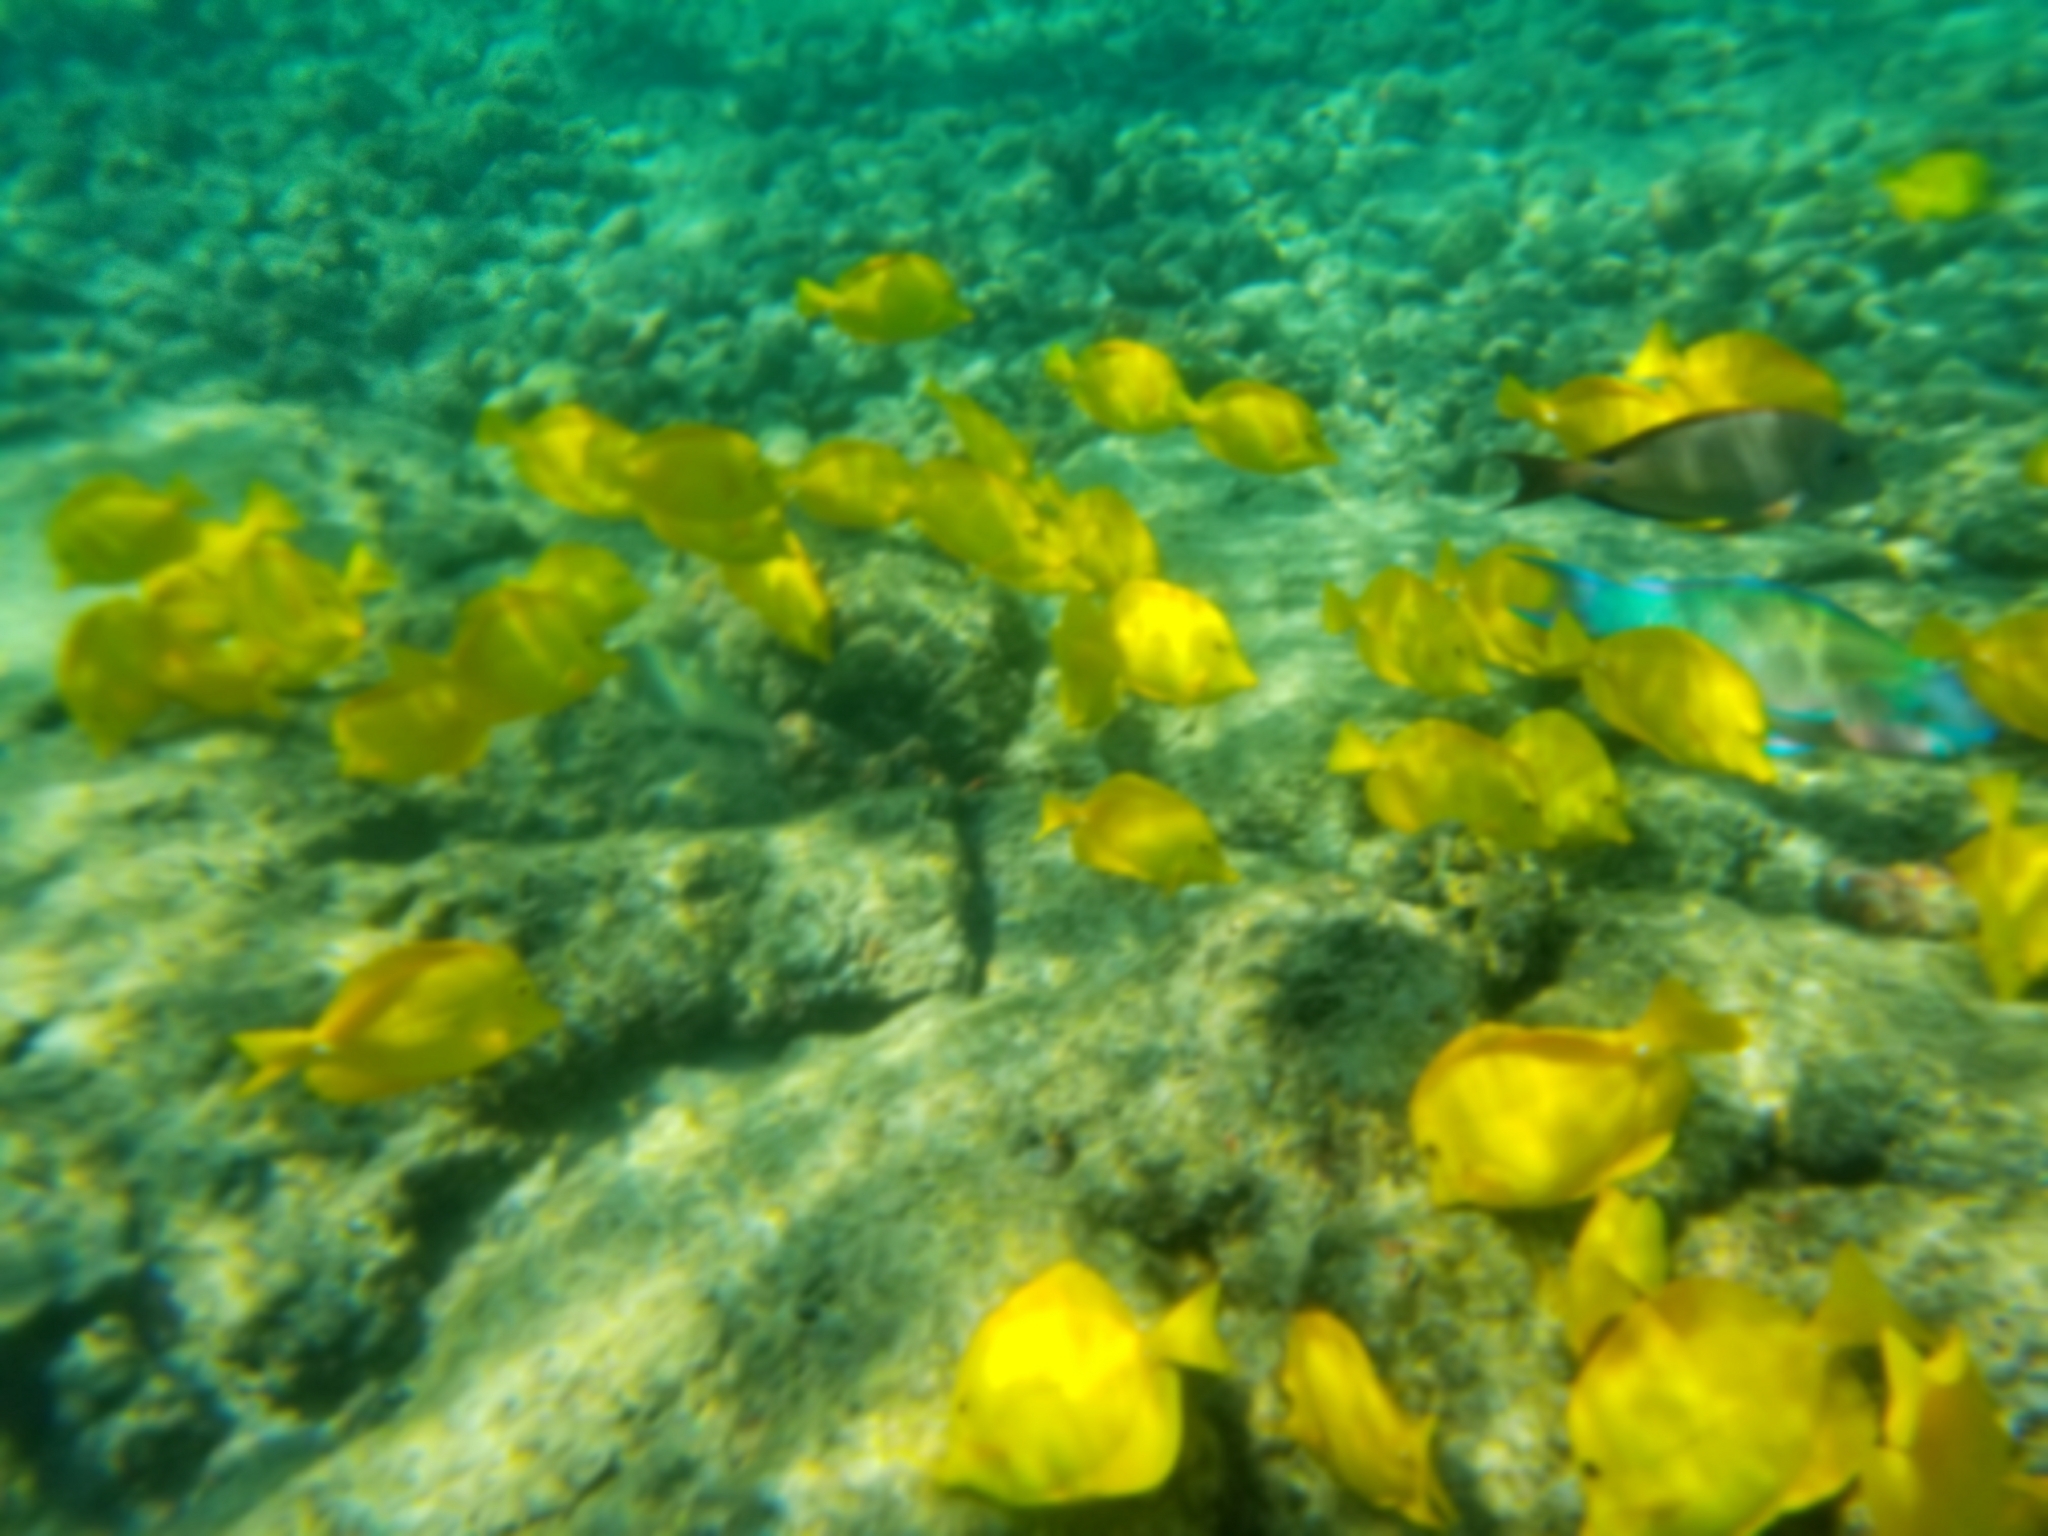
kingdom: Animalia
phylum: Chordata
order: Perciformes
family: Acanthuridae
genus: Zebrasoma
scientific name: Zebrasoma flavescens
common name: Yellow tang
